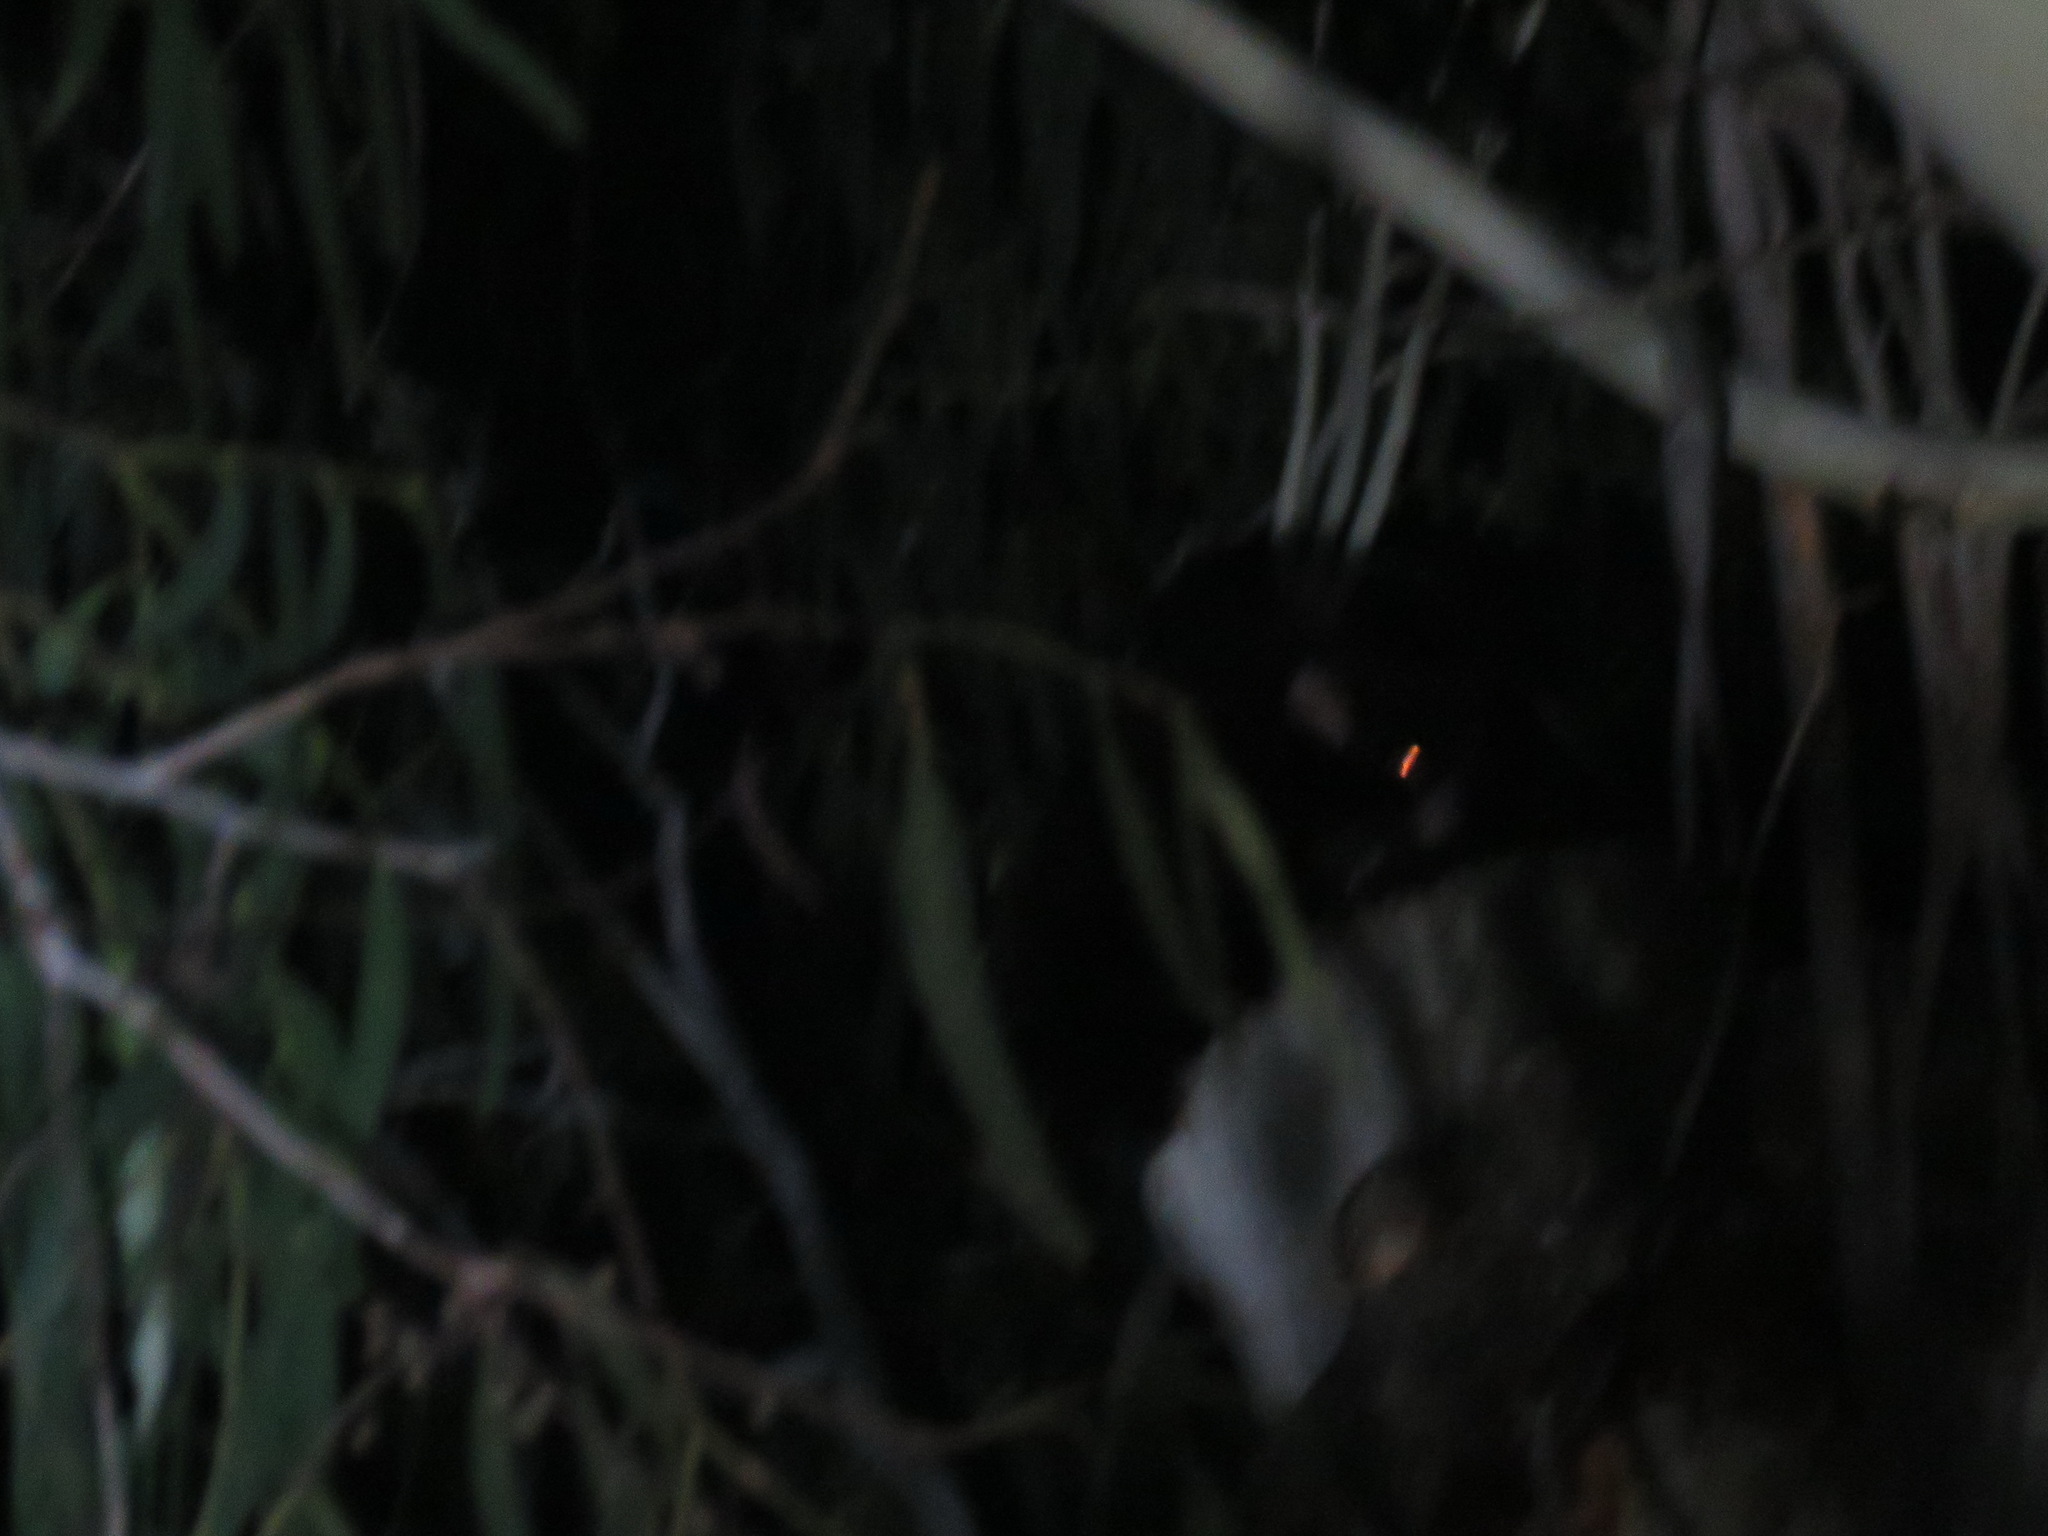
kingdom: Animalia
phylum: Chordata
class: Mammalia
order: Diprotodontia
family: Pseudocheiridae
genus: Petauroides
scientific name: Petauroides volans
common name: Greater glider
